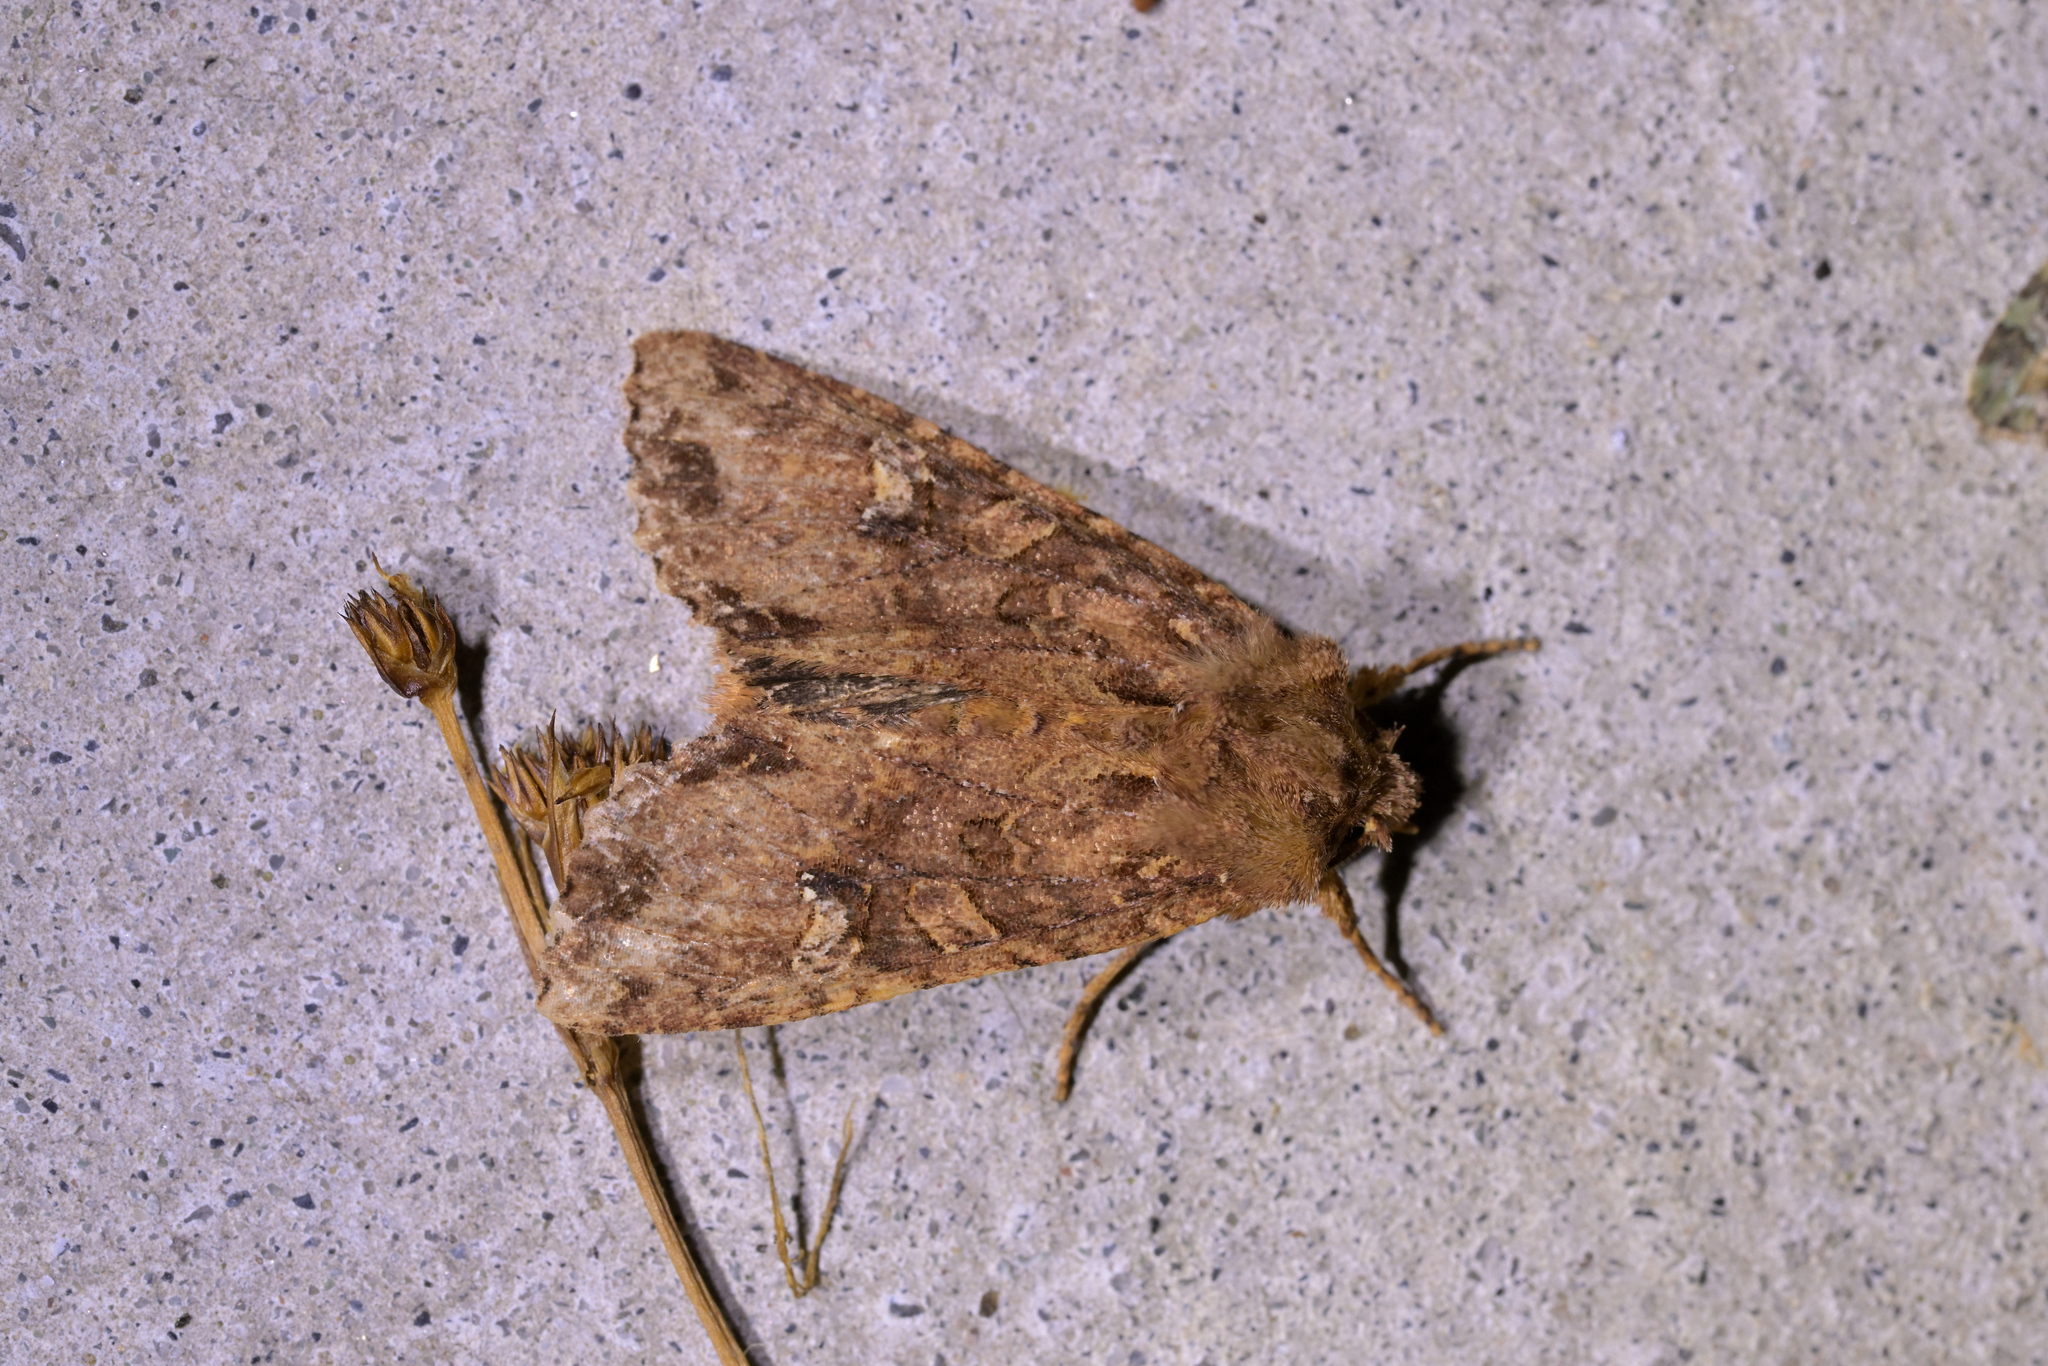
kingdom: Animalia
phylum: Arthropoda
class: Insecta
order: Lepidoptera
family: Noctuidae
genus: Meterana
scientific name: Meterana
